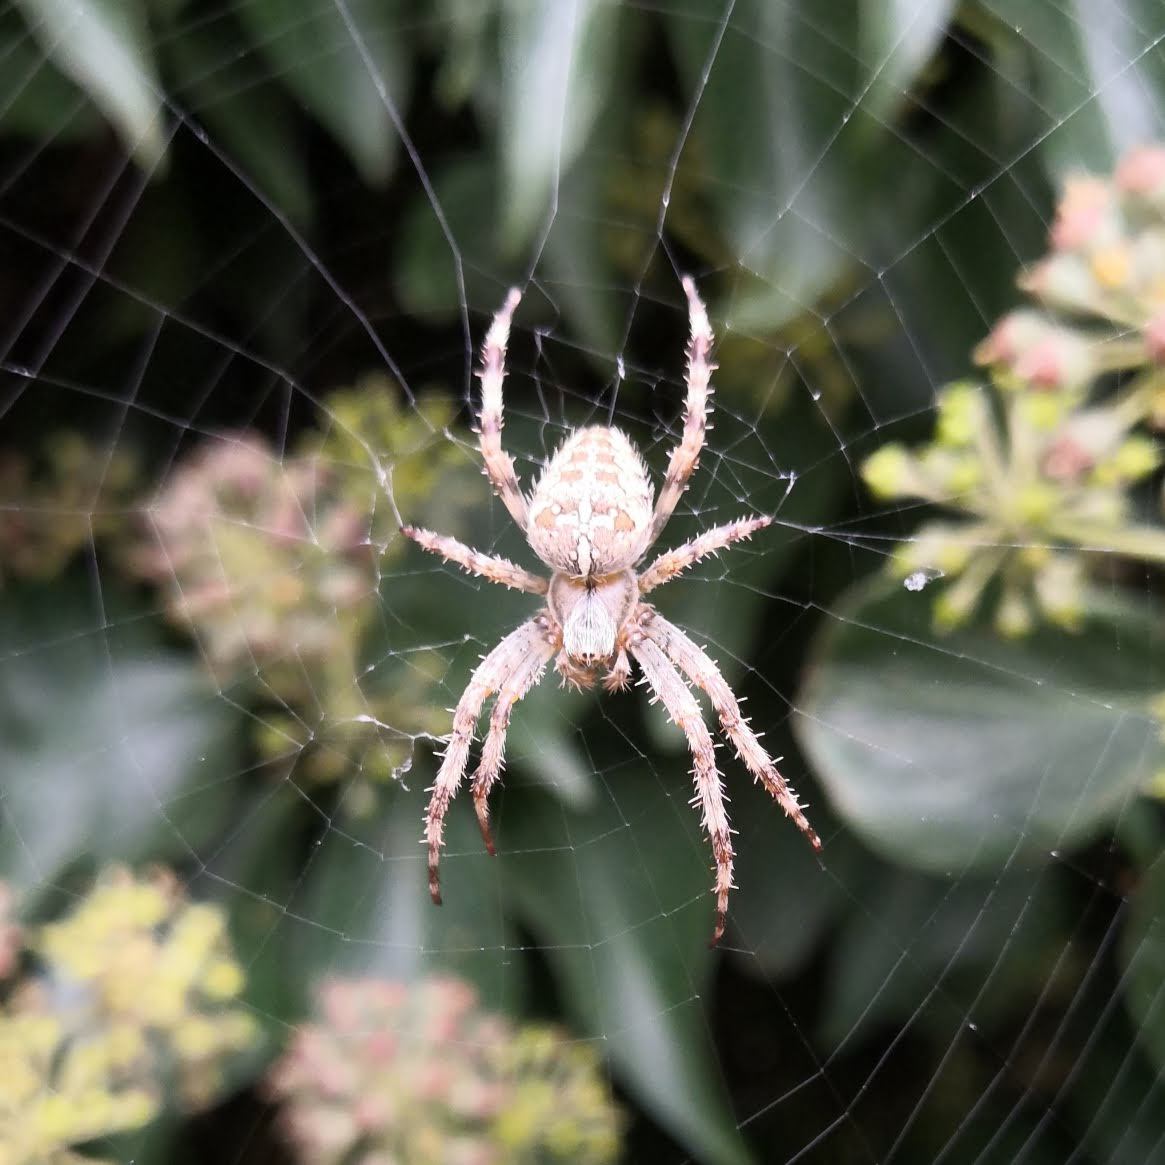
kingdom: Animalia
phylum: Arthropoda
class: Arachnida
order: Araneae
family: Araneidae
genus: Araneus
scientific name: Araneus diadematus
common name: Cross orbweaver
